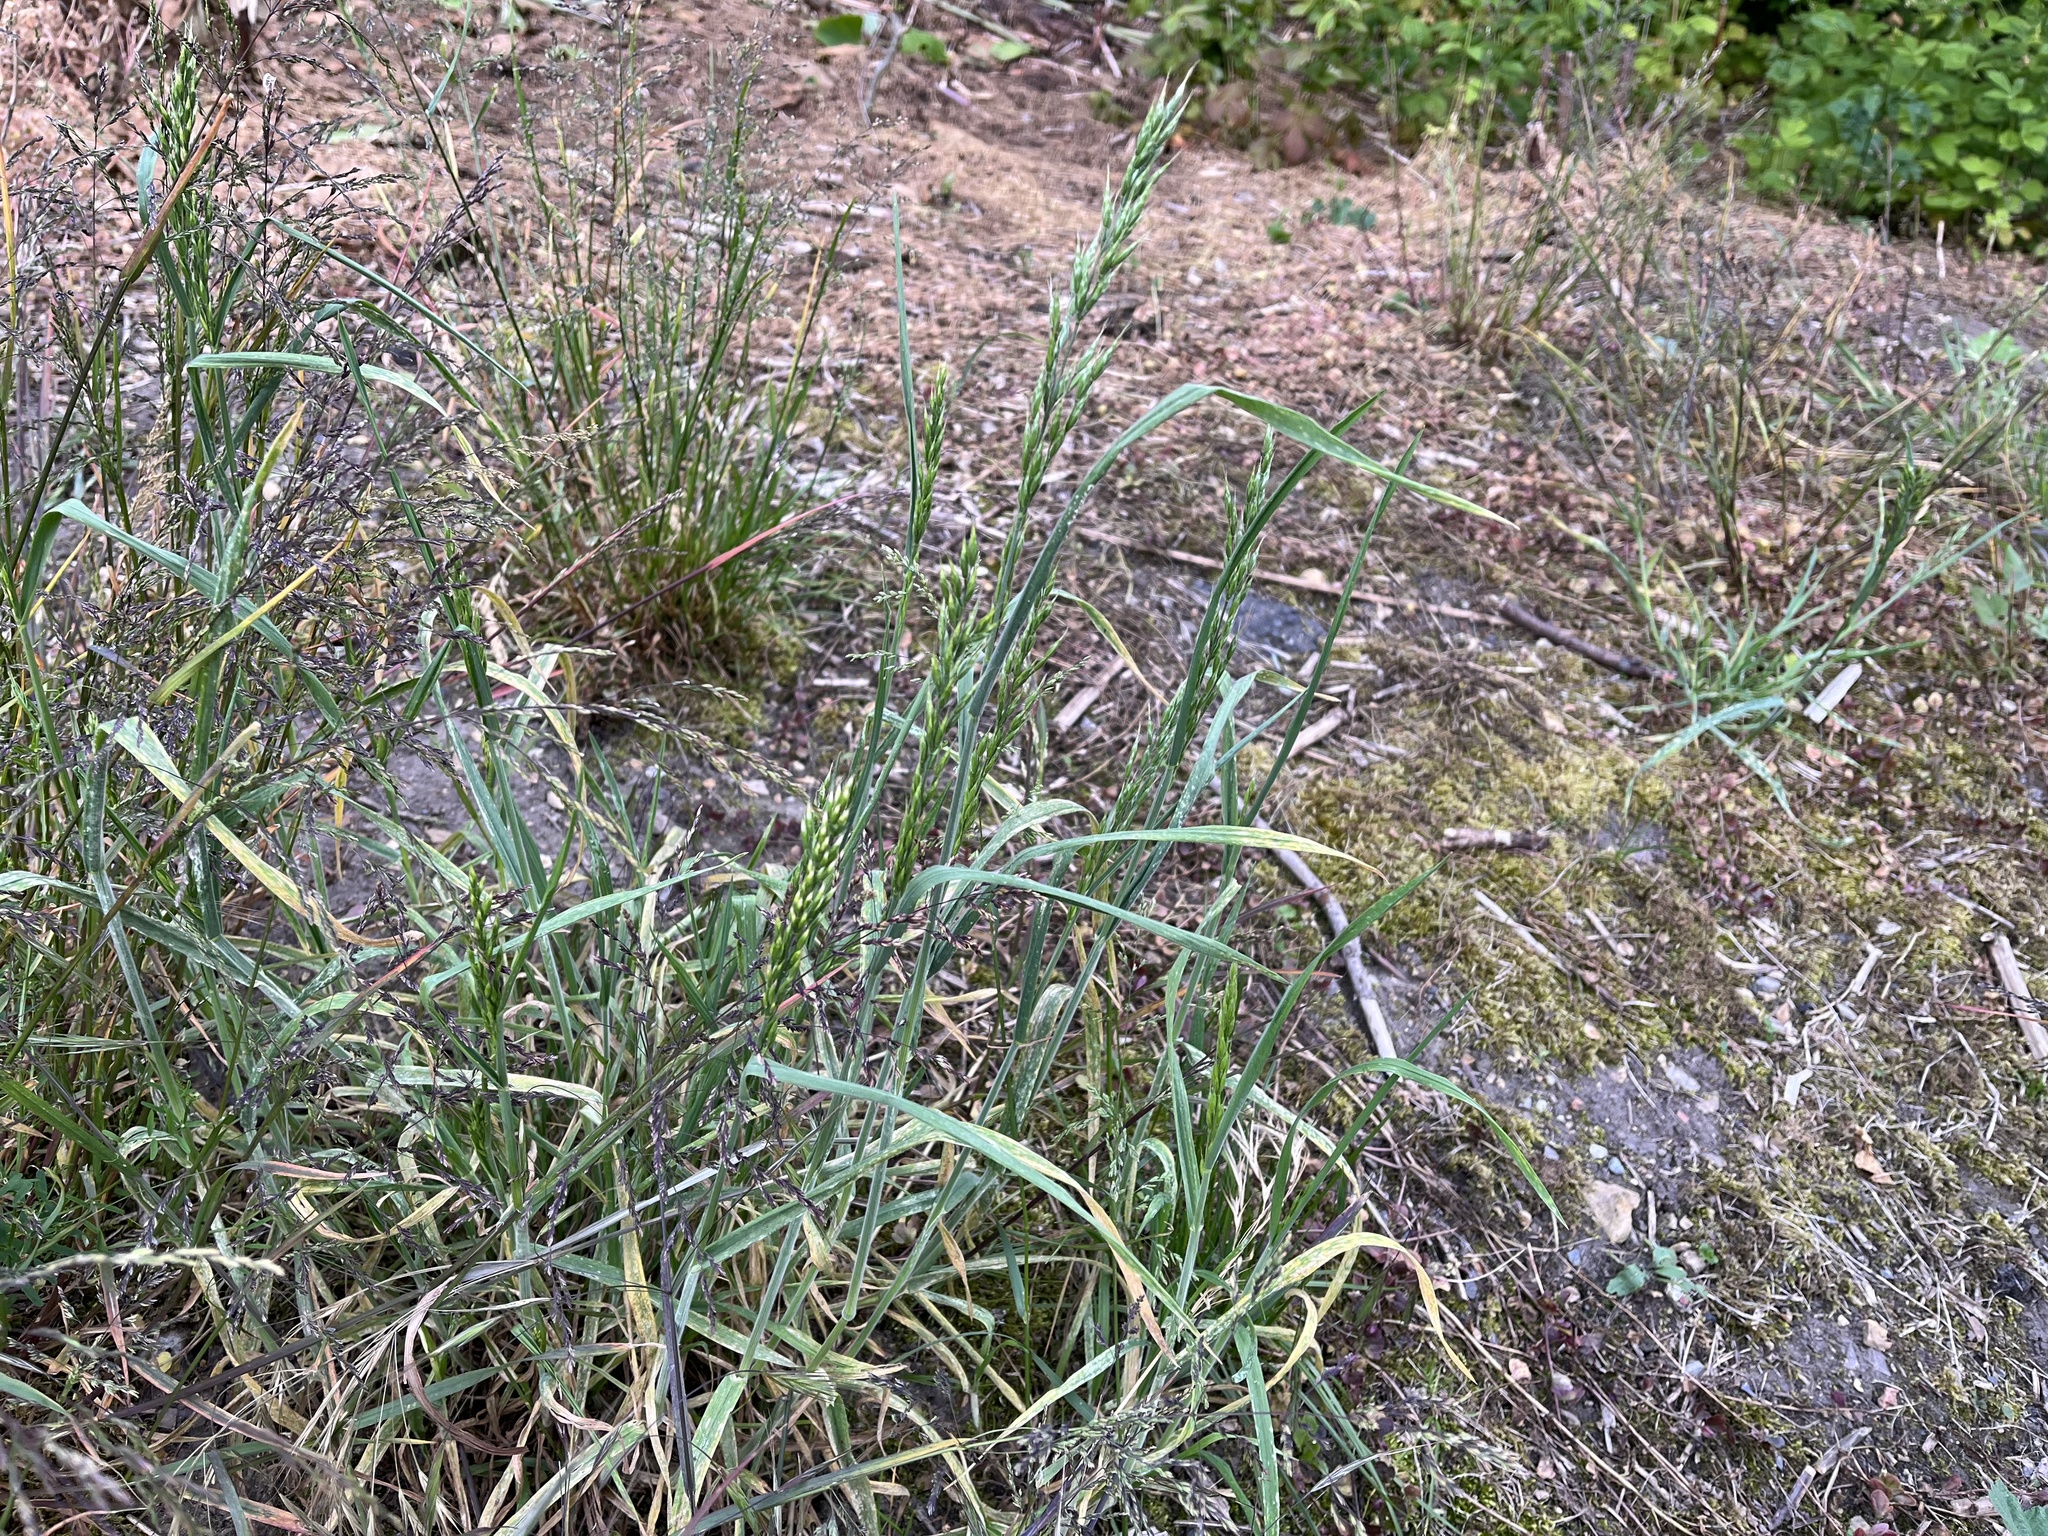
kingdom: Plantae
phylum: Tracheophyta
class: Liliopsida
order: Poales
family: Poaceae
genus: Bromus
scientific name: Bromus hordeaceus
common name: Soft brome
